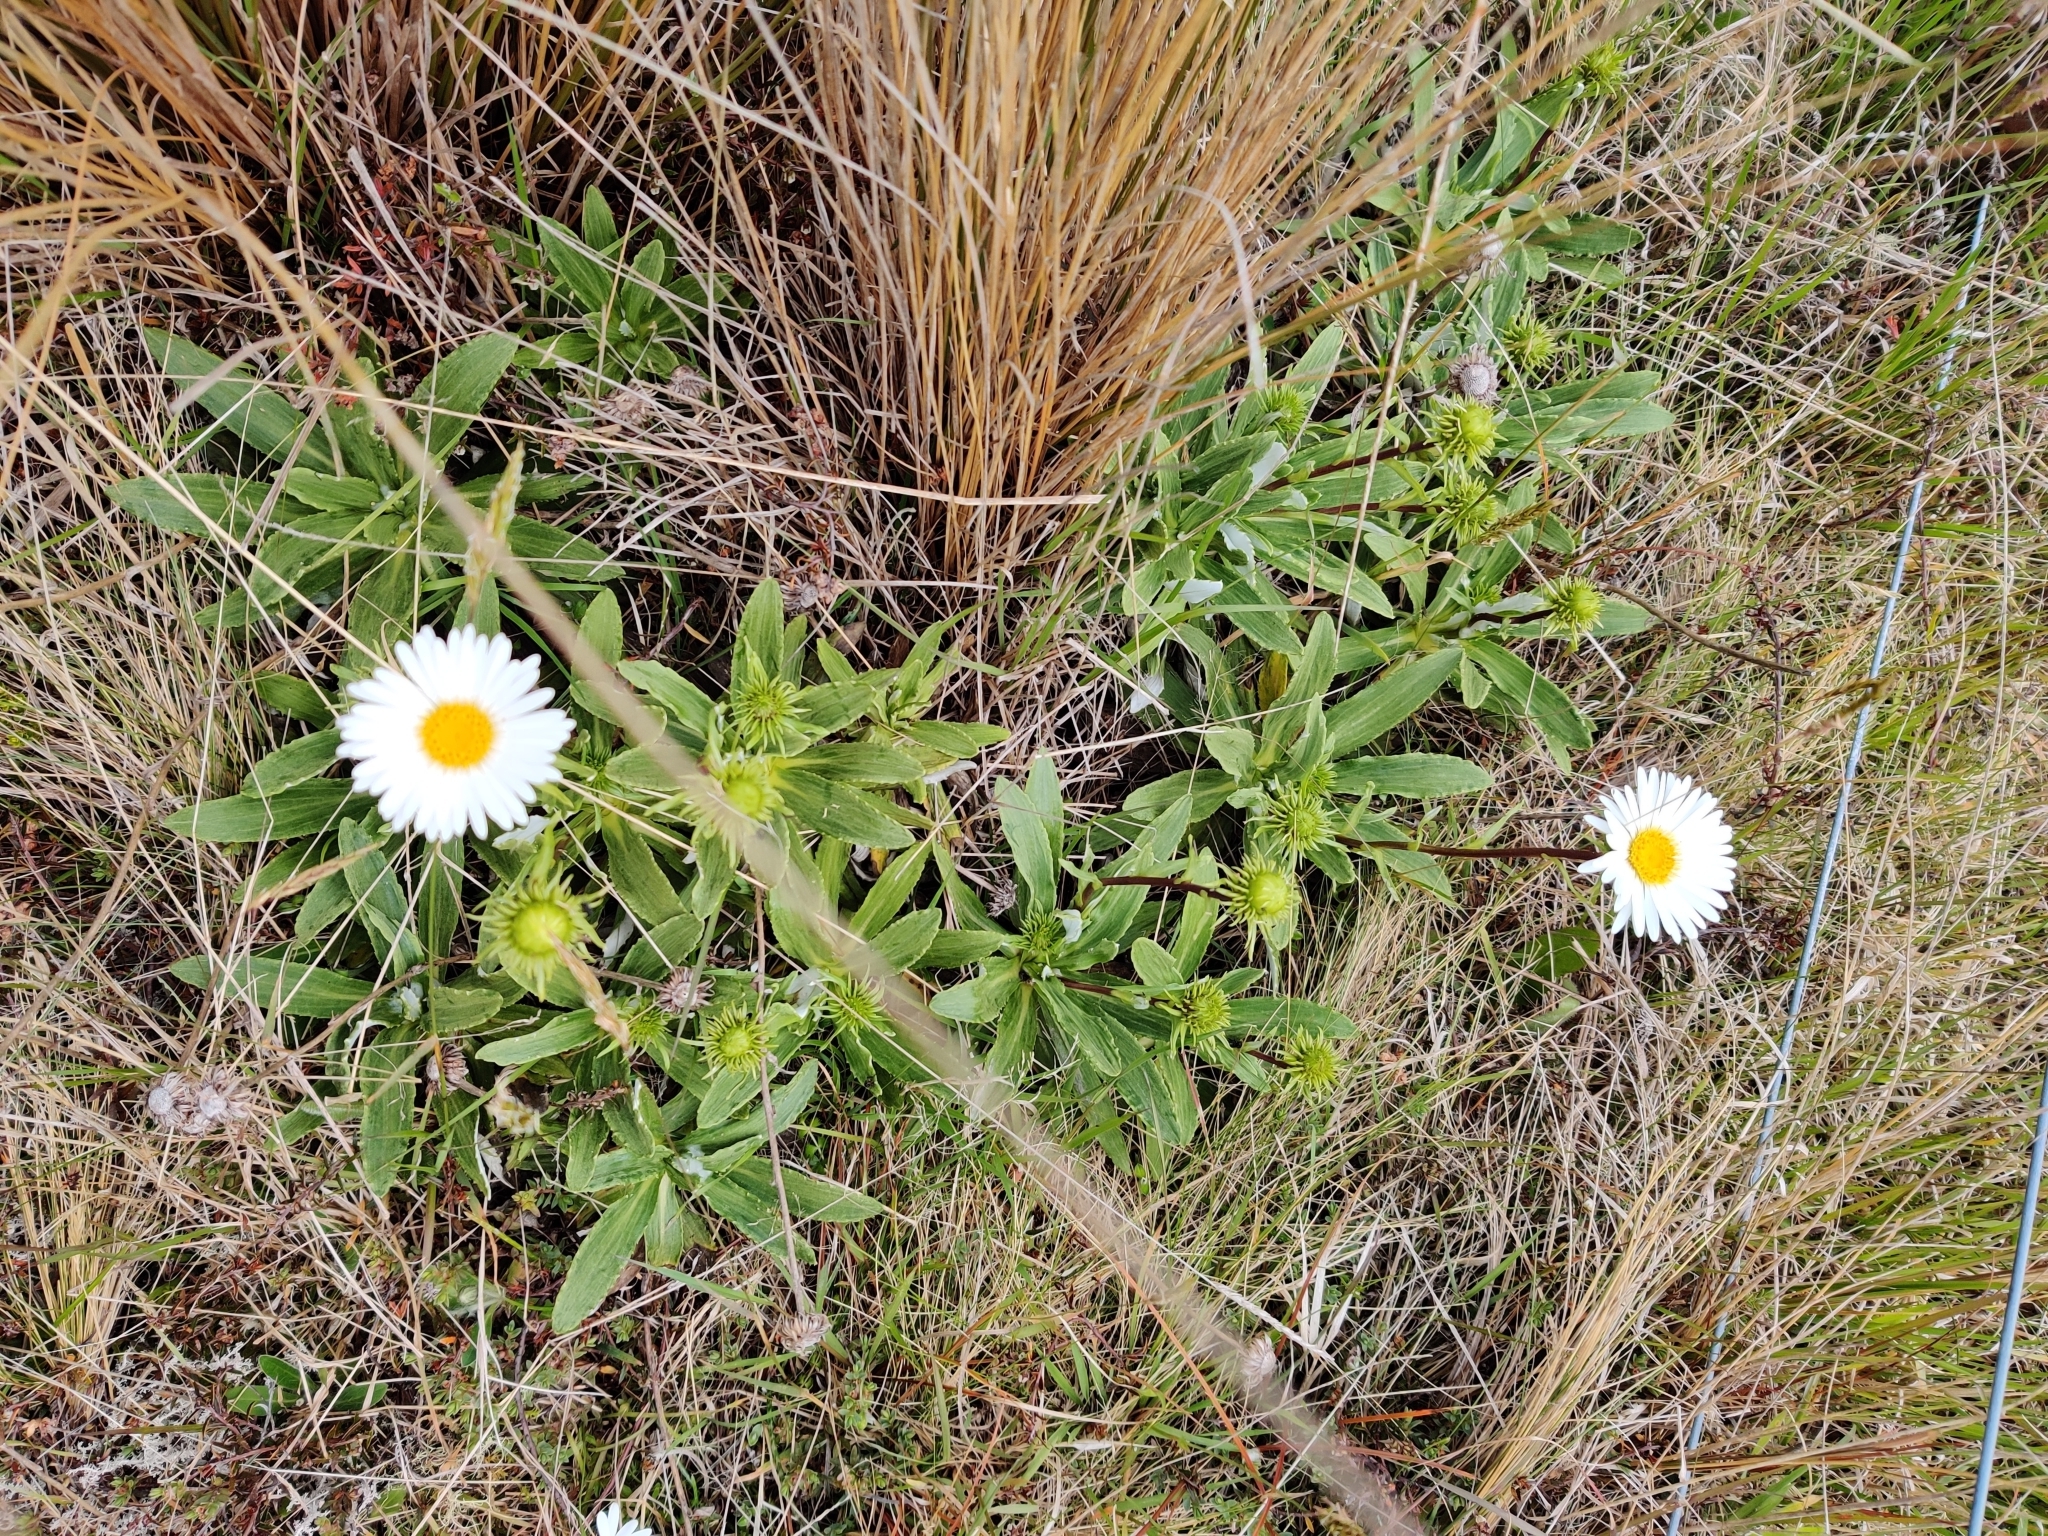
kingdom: Plantae
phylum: Tracheophyta
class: Magnoliopsida
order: Asterales
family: Asteraceae
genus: Celmisia
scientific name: Celmisia densiflora
